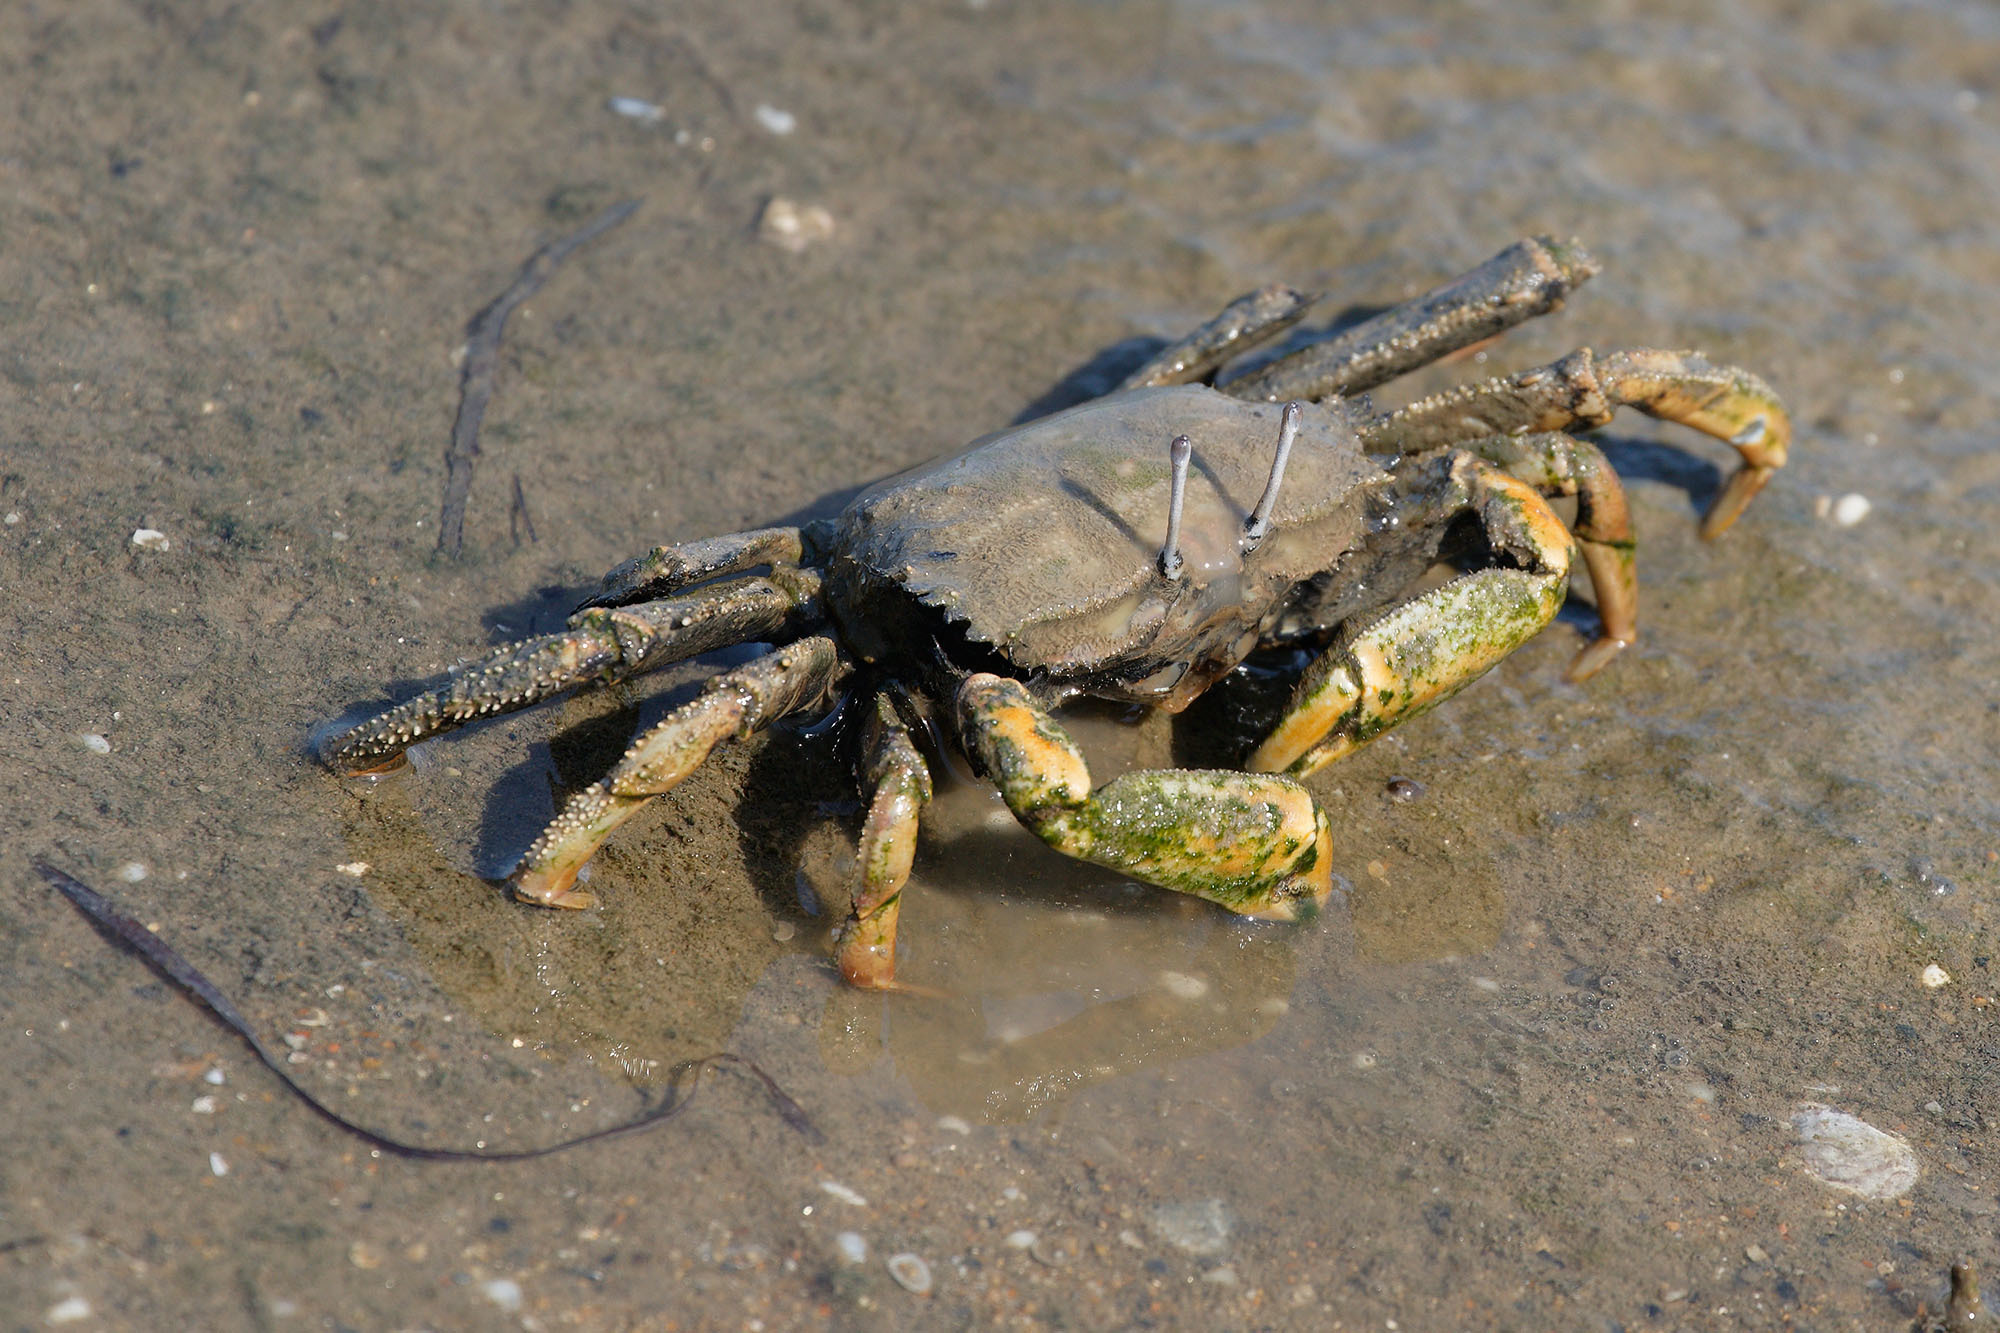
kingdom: Animalia
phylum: Arthropoda
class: Malacostraca
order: Decapoda
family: Macrophthalmidae
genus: Venitus
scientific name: Venitus latreillei
